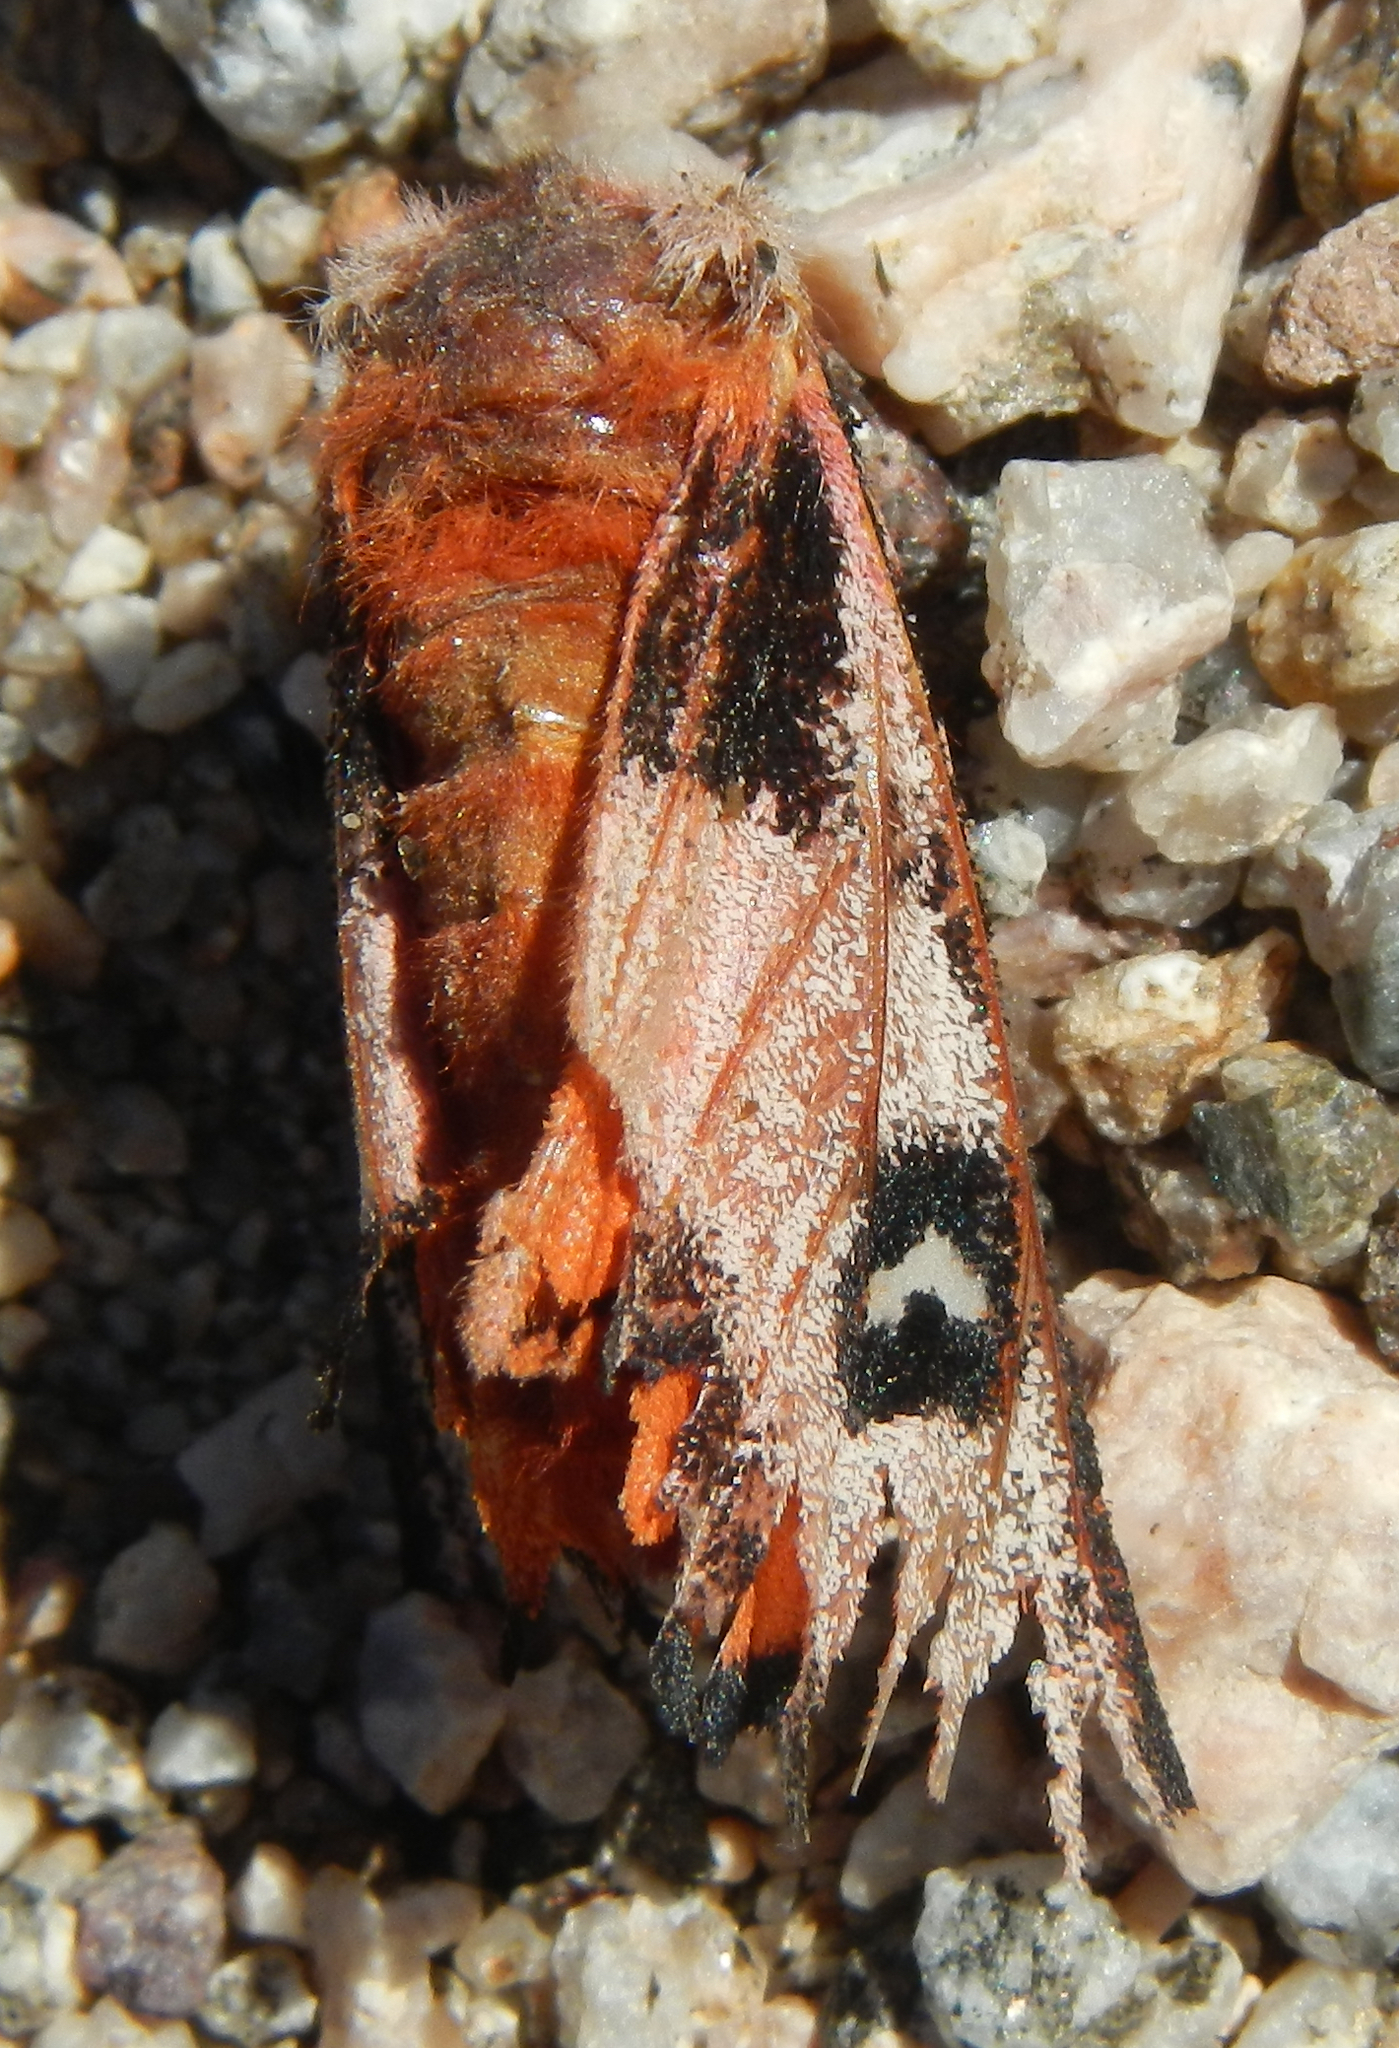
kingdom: Animalia
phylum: Arthropoda
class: Insecta
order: Lepidoptera
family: Saturniidae
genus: Hemileuca
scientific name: Hemileuca electra
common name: Electra buckmoth
